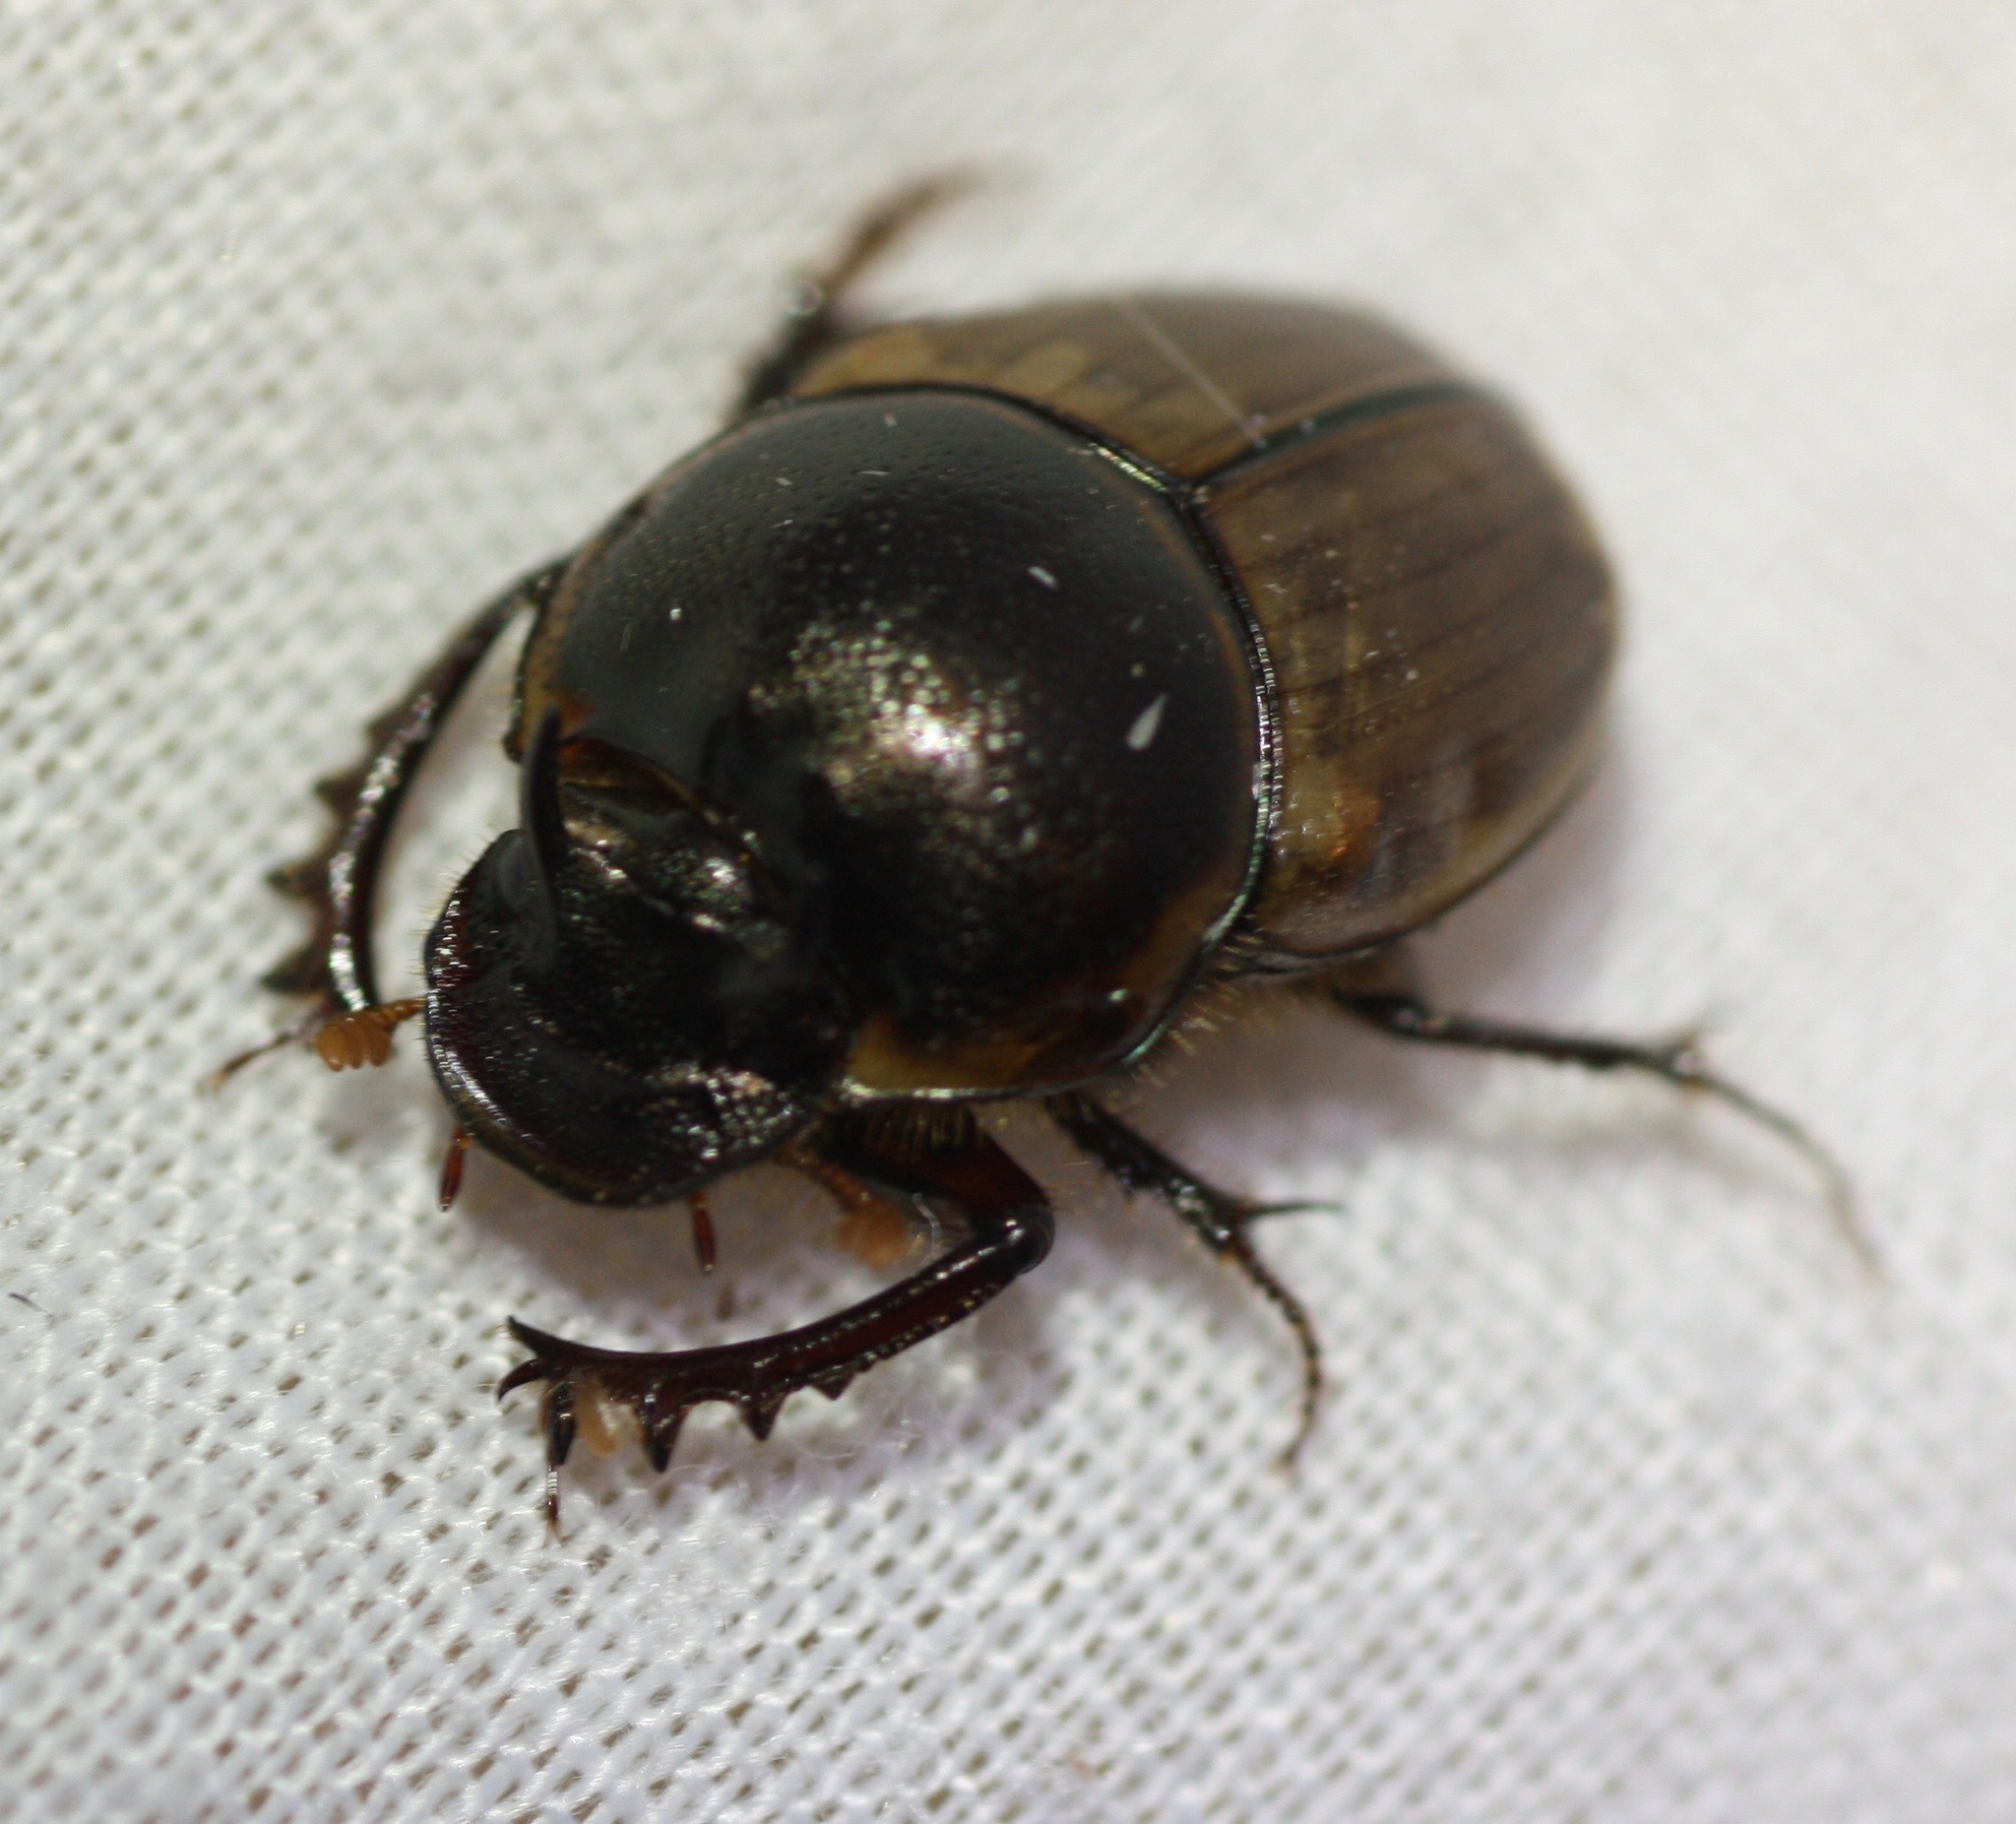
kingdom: Animalia
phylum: Arthropoda
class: Insecta
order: Coleoptera
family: Scarabaeidae
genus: Digitonthophagus
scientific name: Digitonthophagus gazella
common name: Brown dung beetle
